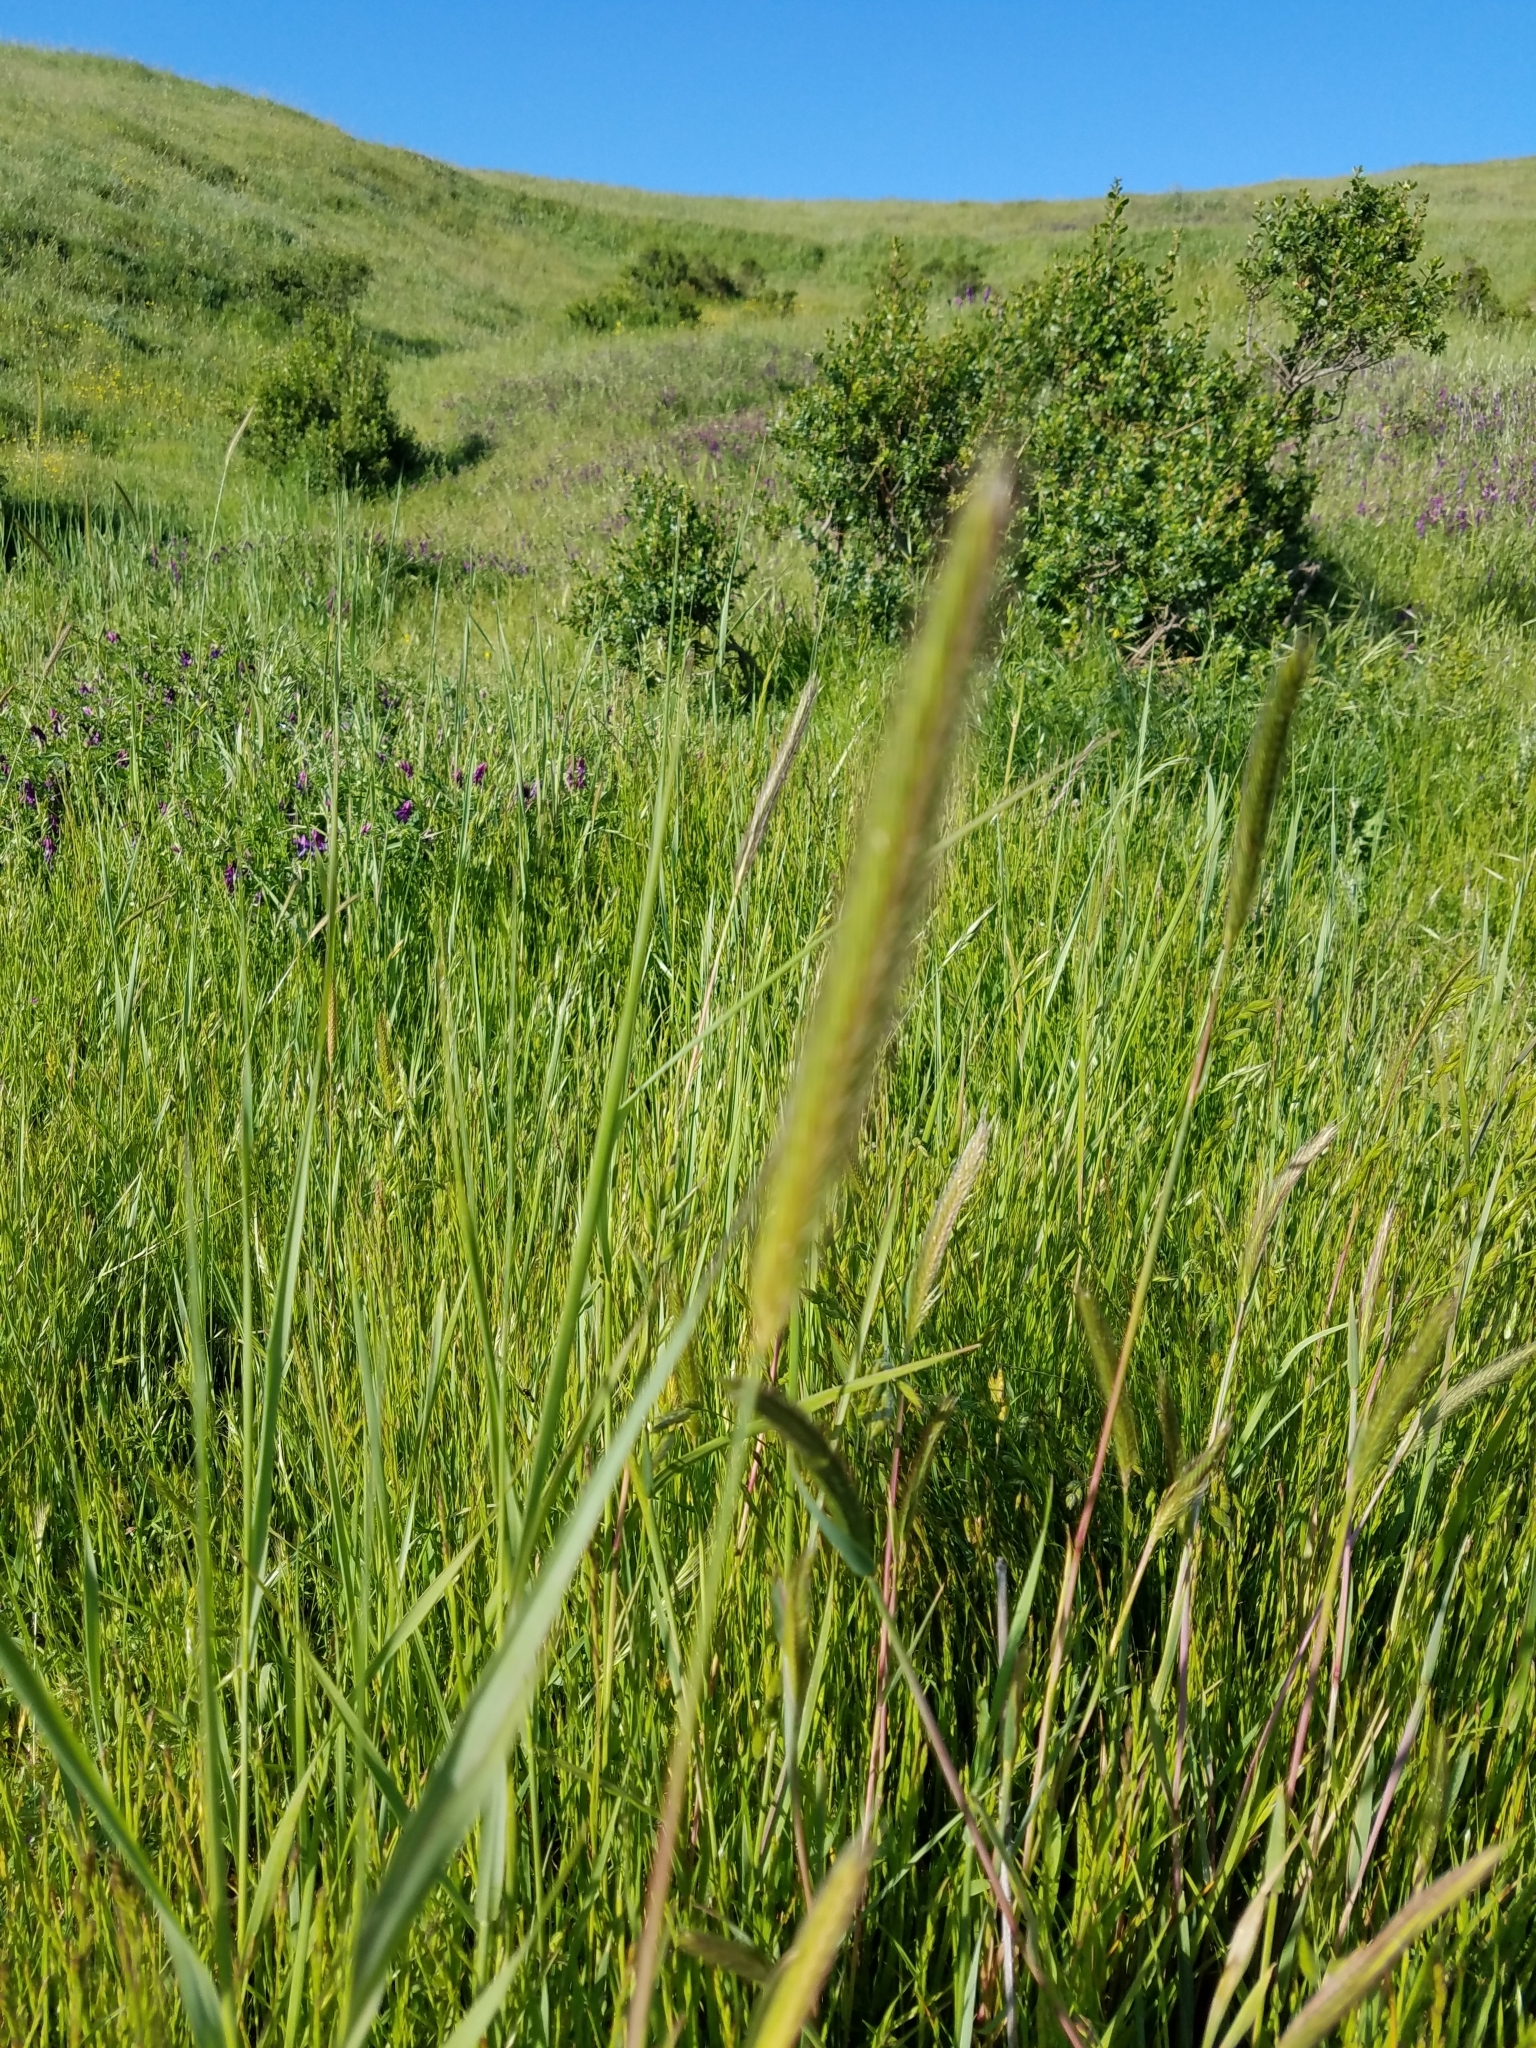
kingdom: Plantae
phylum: Tracheophyta
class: Liliopsida
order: Poales
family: Poaceae
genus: Hordeum
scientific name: Hordeum brachyantherum
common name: Meadow barley
